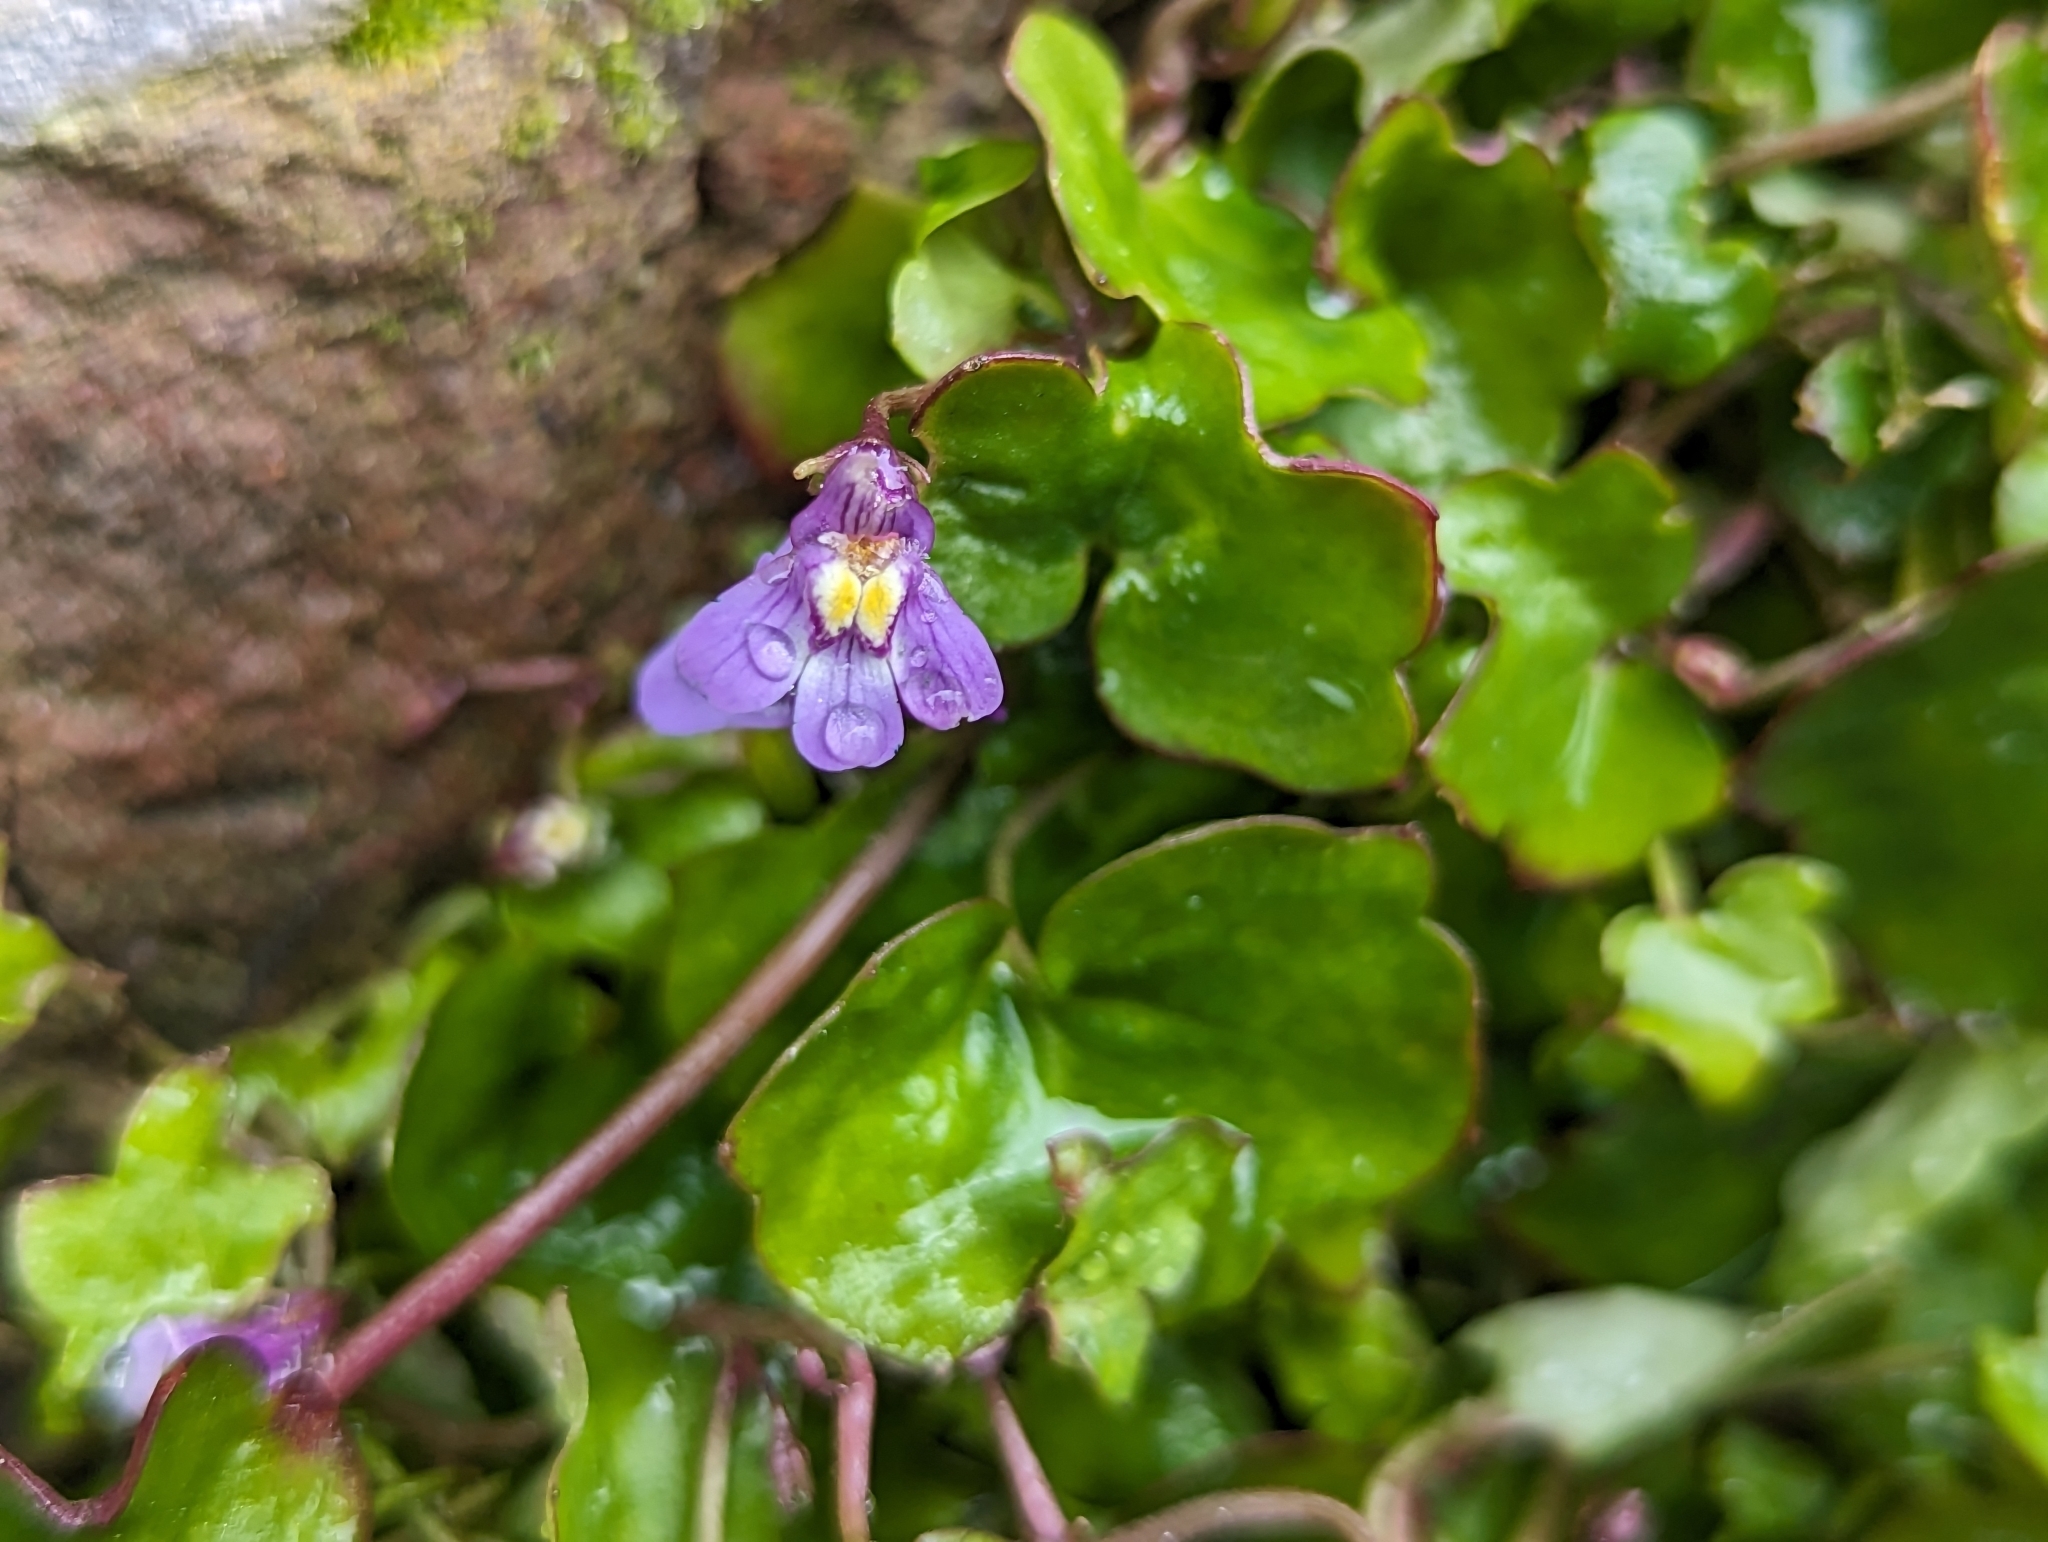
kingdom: Plantae
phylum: Tracheophyta
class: Magnoliopsida
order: Lamiales
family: Plantaginaceae
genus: Cymbalaria
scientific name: Cymbalaria muralis
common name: Ivy-leaved toadflax
